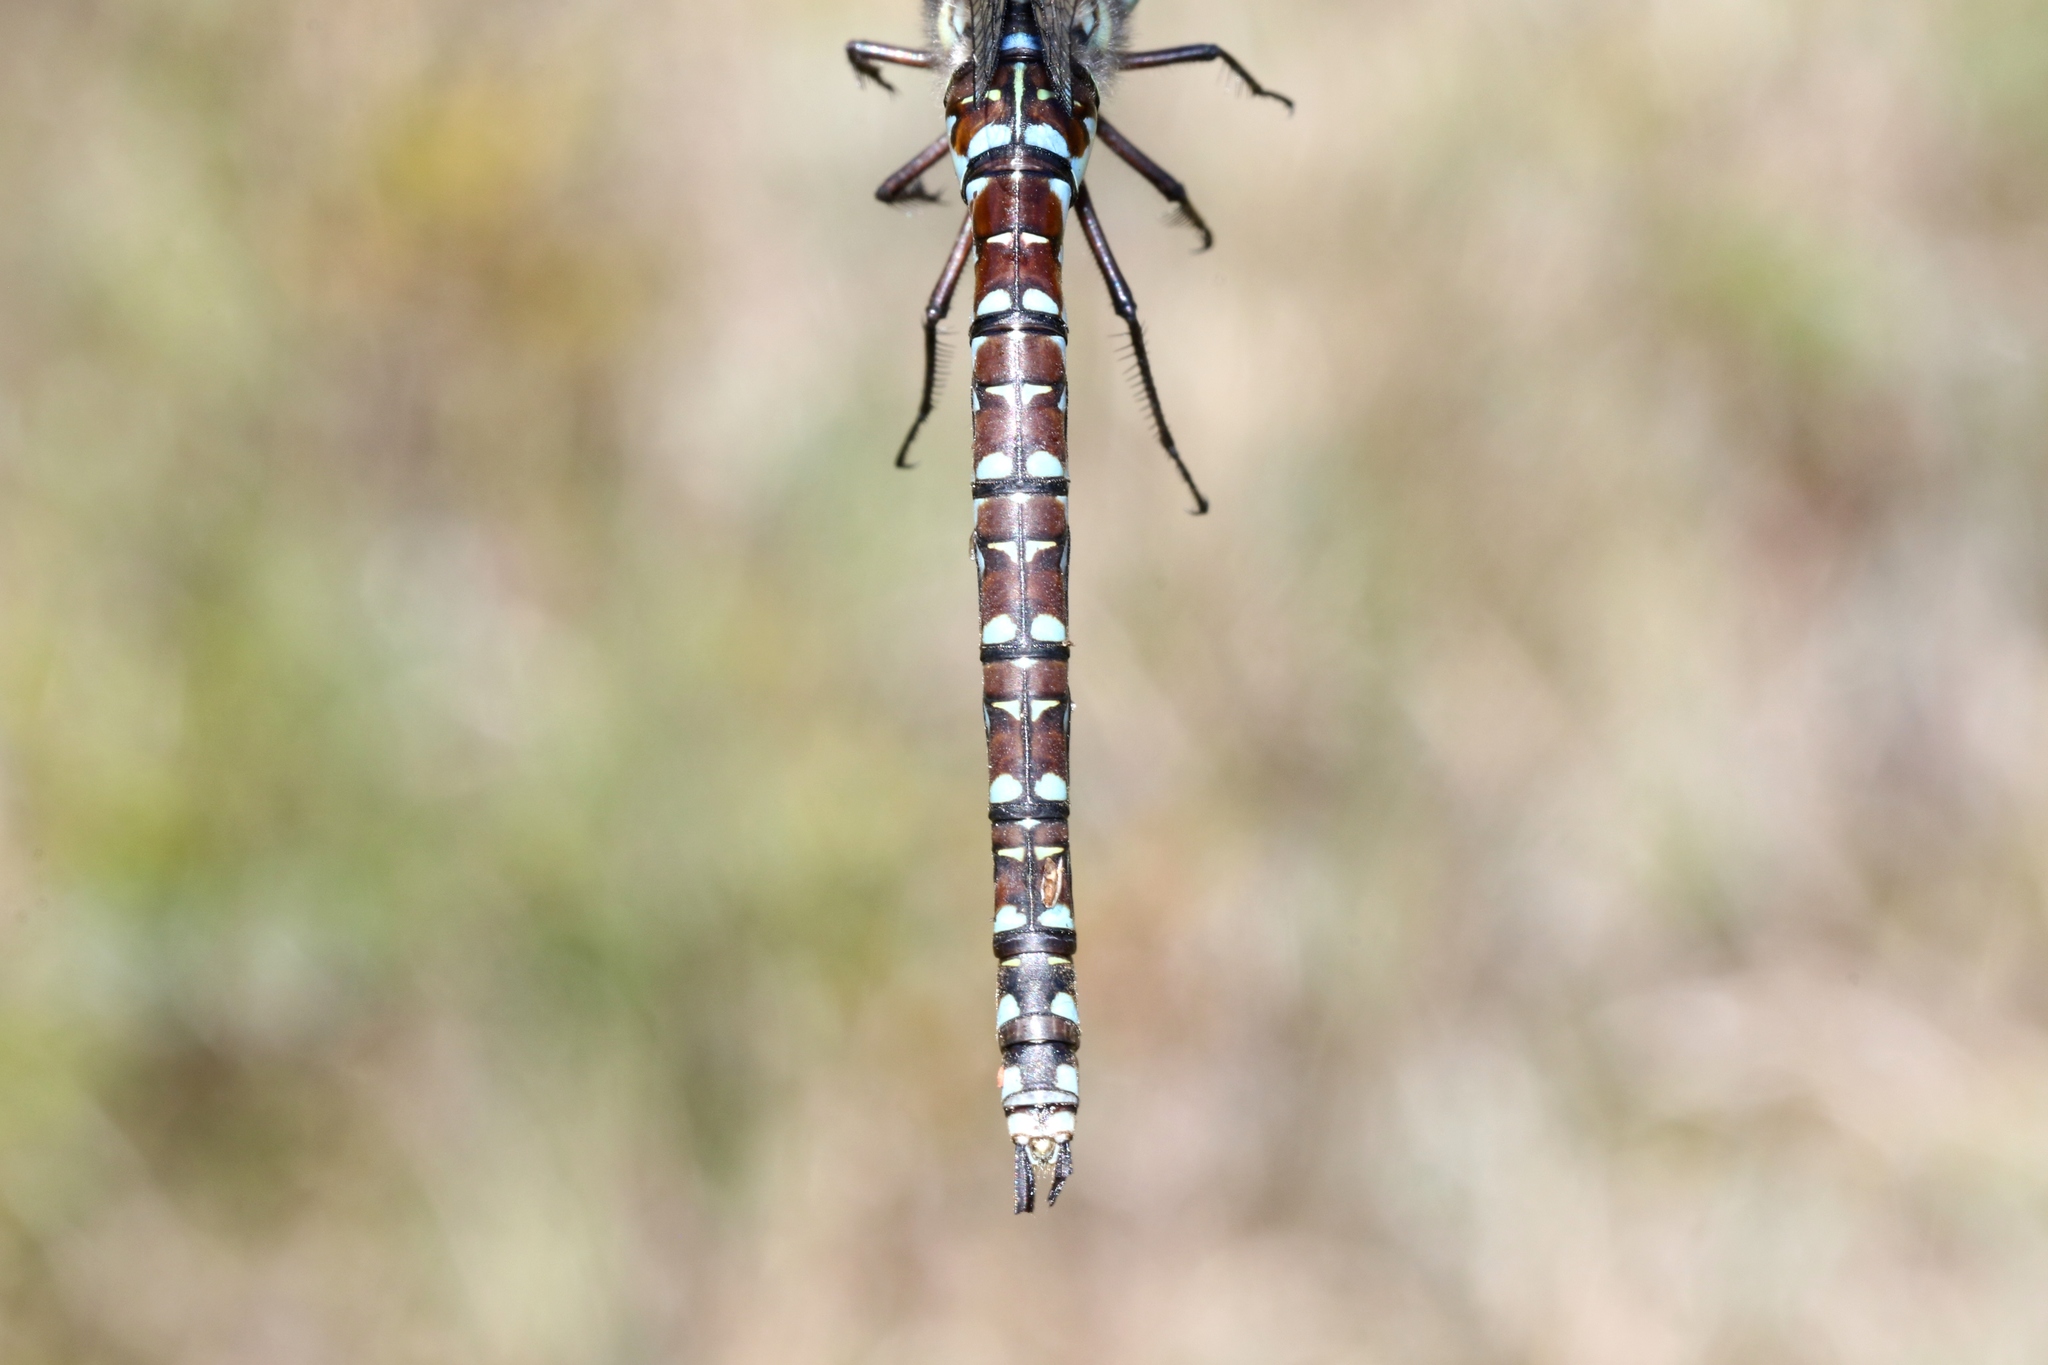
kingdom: Animalia
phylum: Arthropoda
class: Insecta
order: Odonata
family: Aeshnidae
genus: Aeshna
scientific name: Aeshna juncea
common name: Moorland hawker
